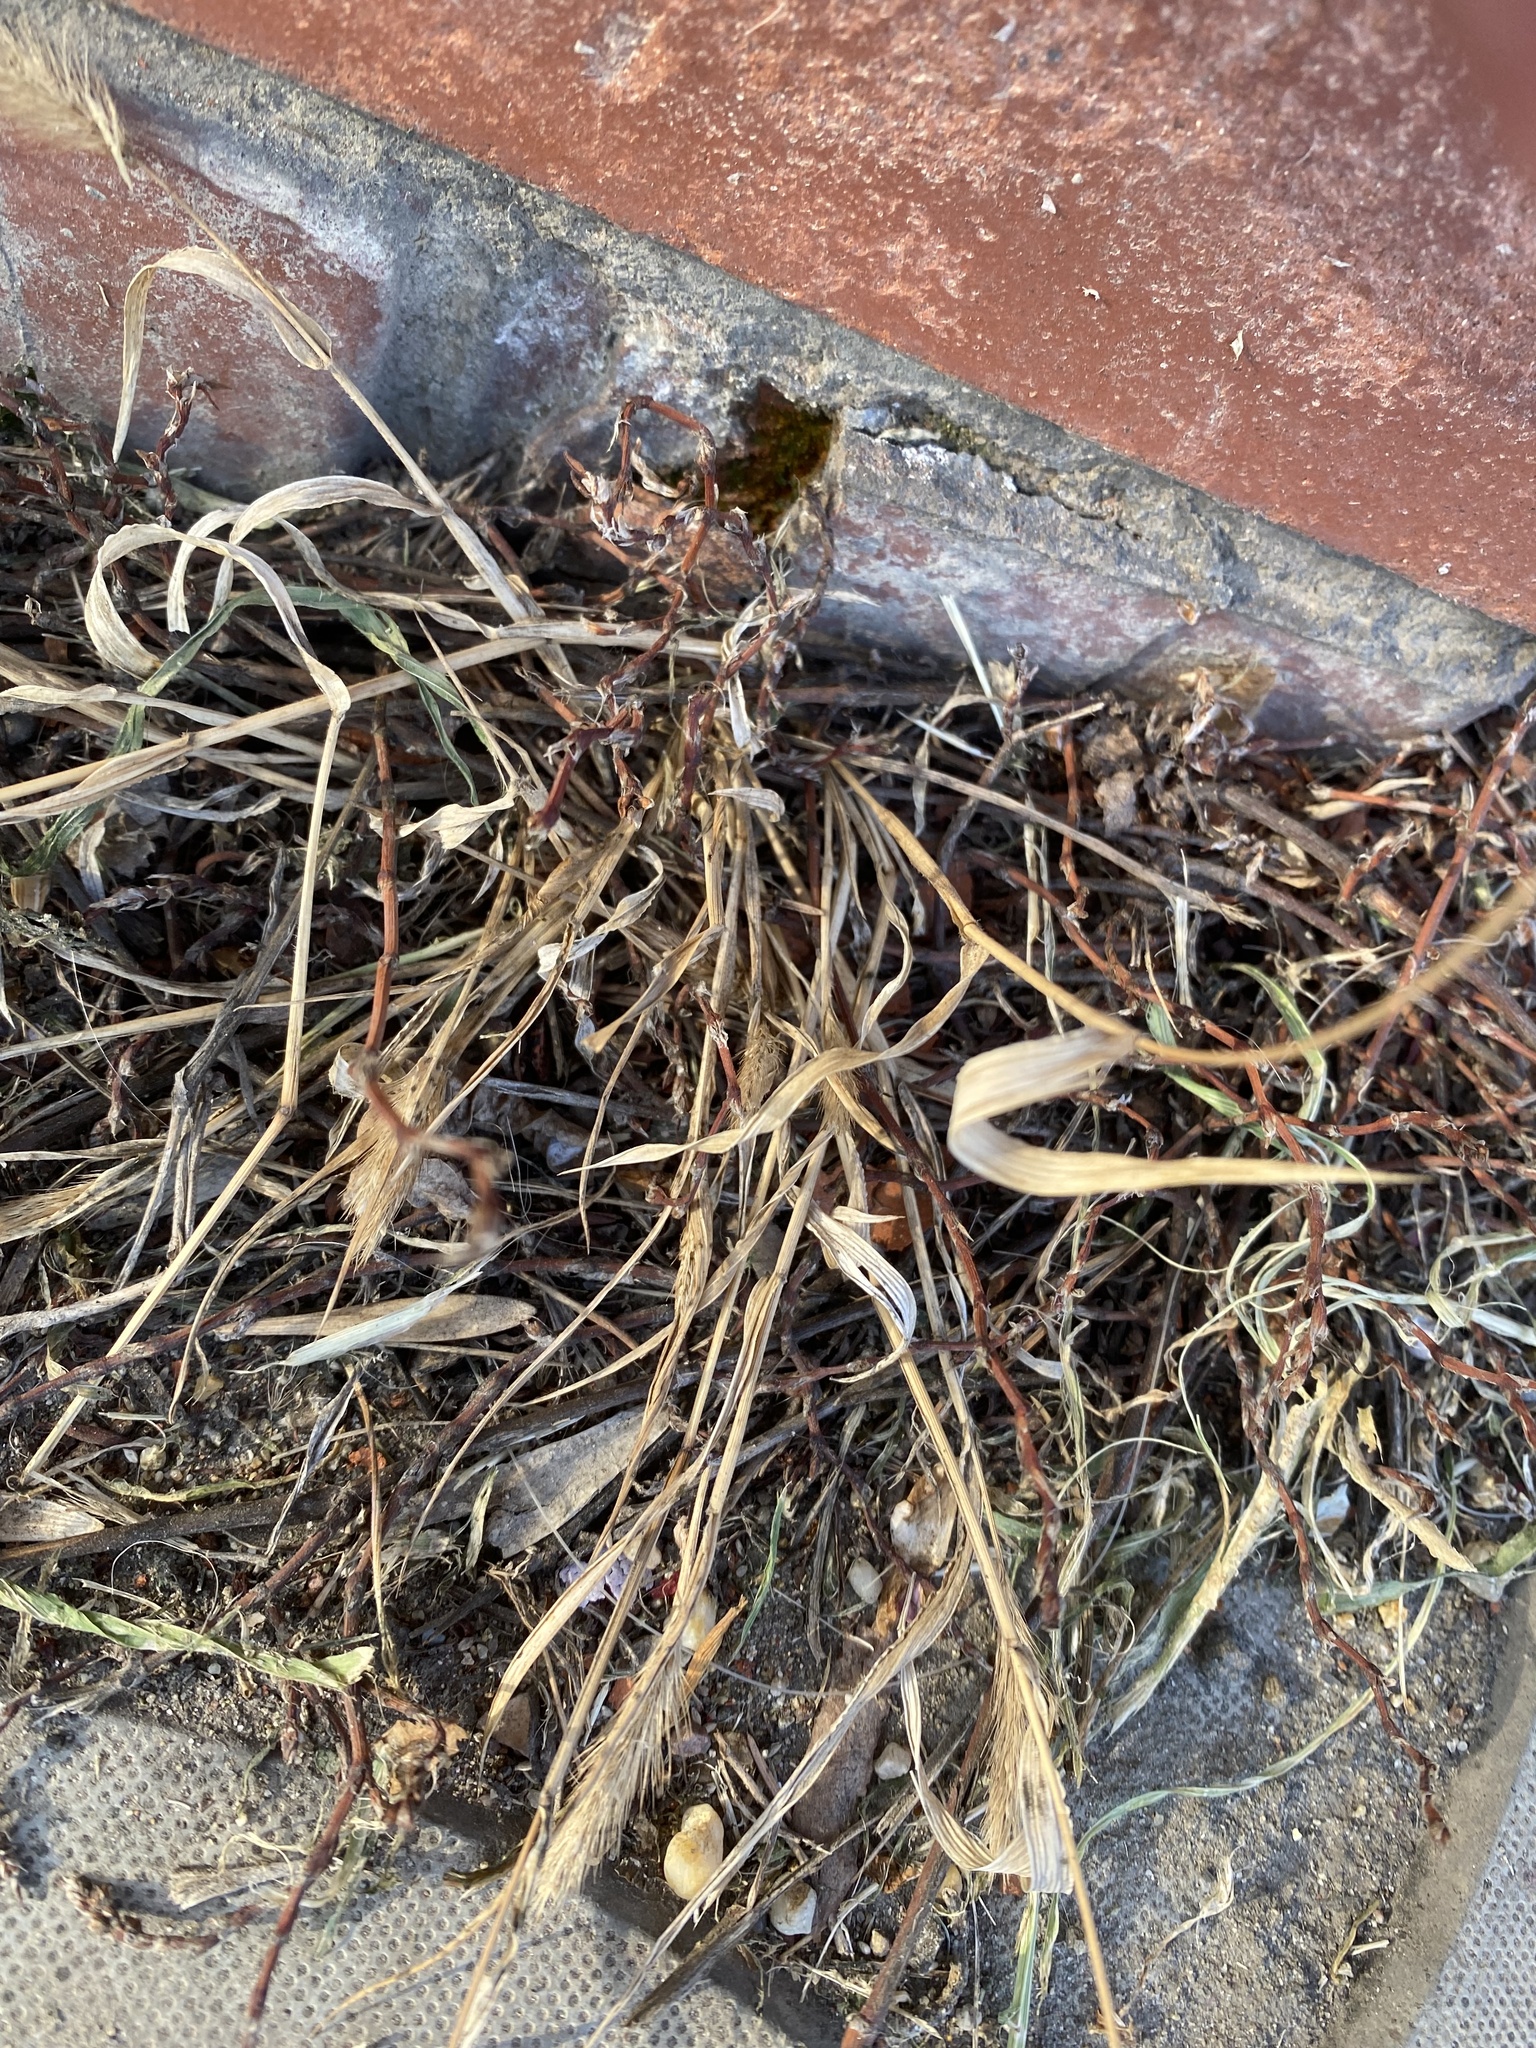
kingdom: Plantae
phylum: Tracheophyta
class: Liliopsida
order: Poales
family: Poaceae
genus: Setaria
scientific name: Setaria viridis
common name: Green bristlegrass
